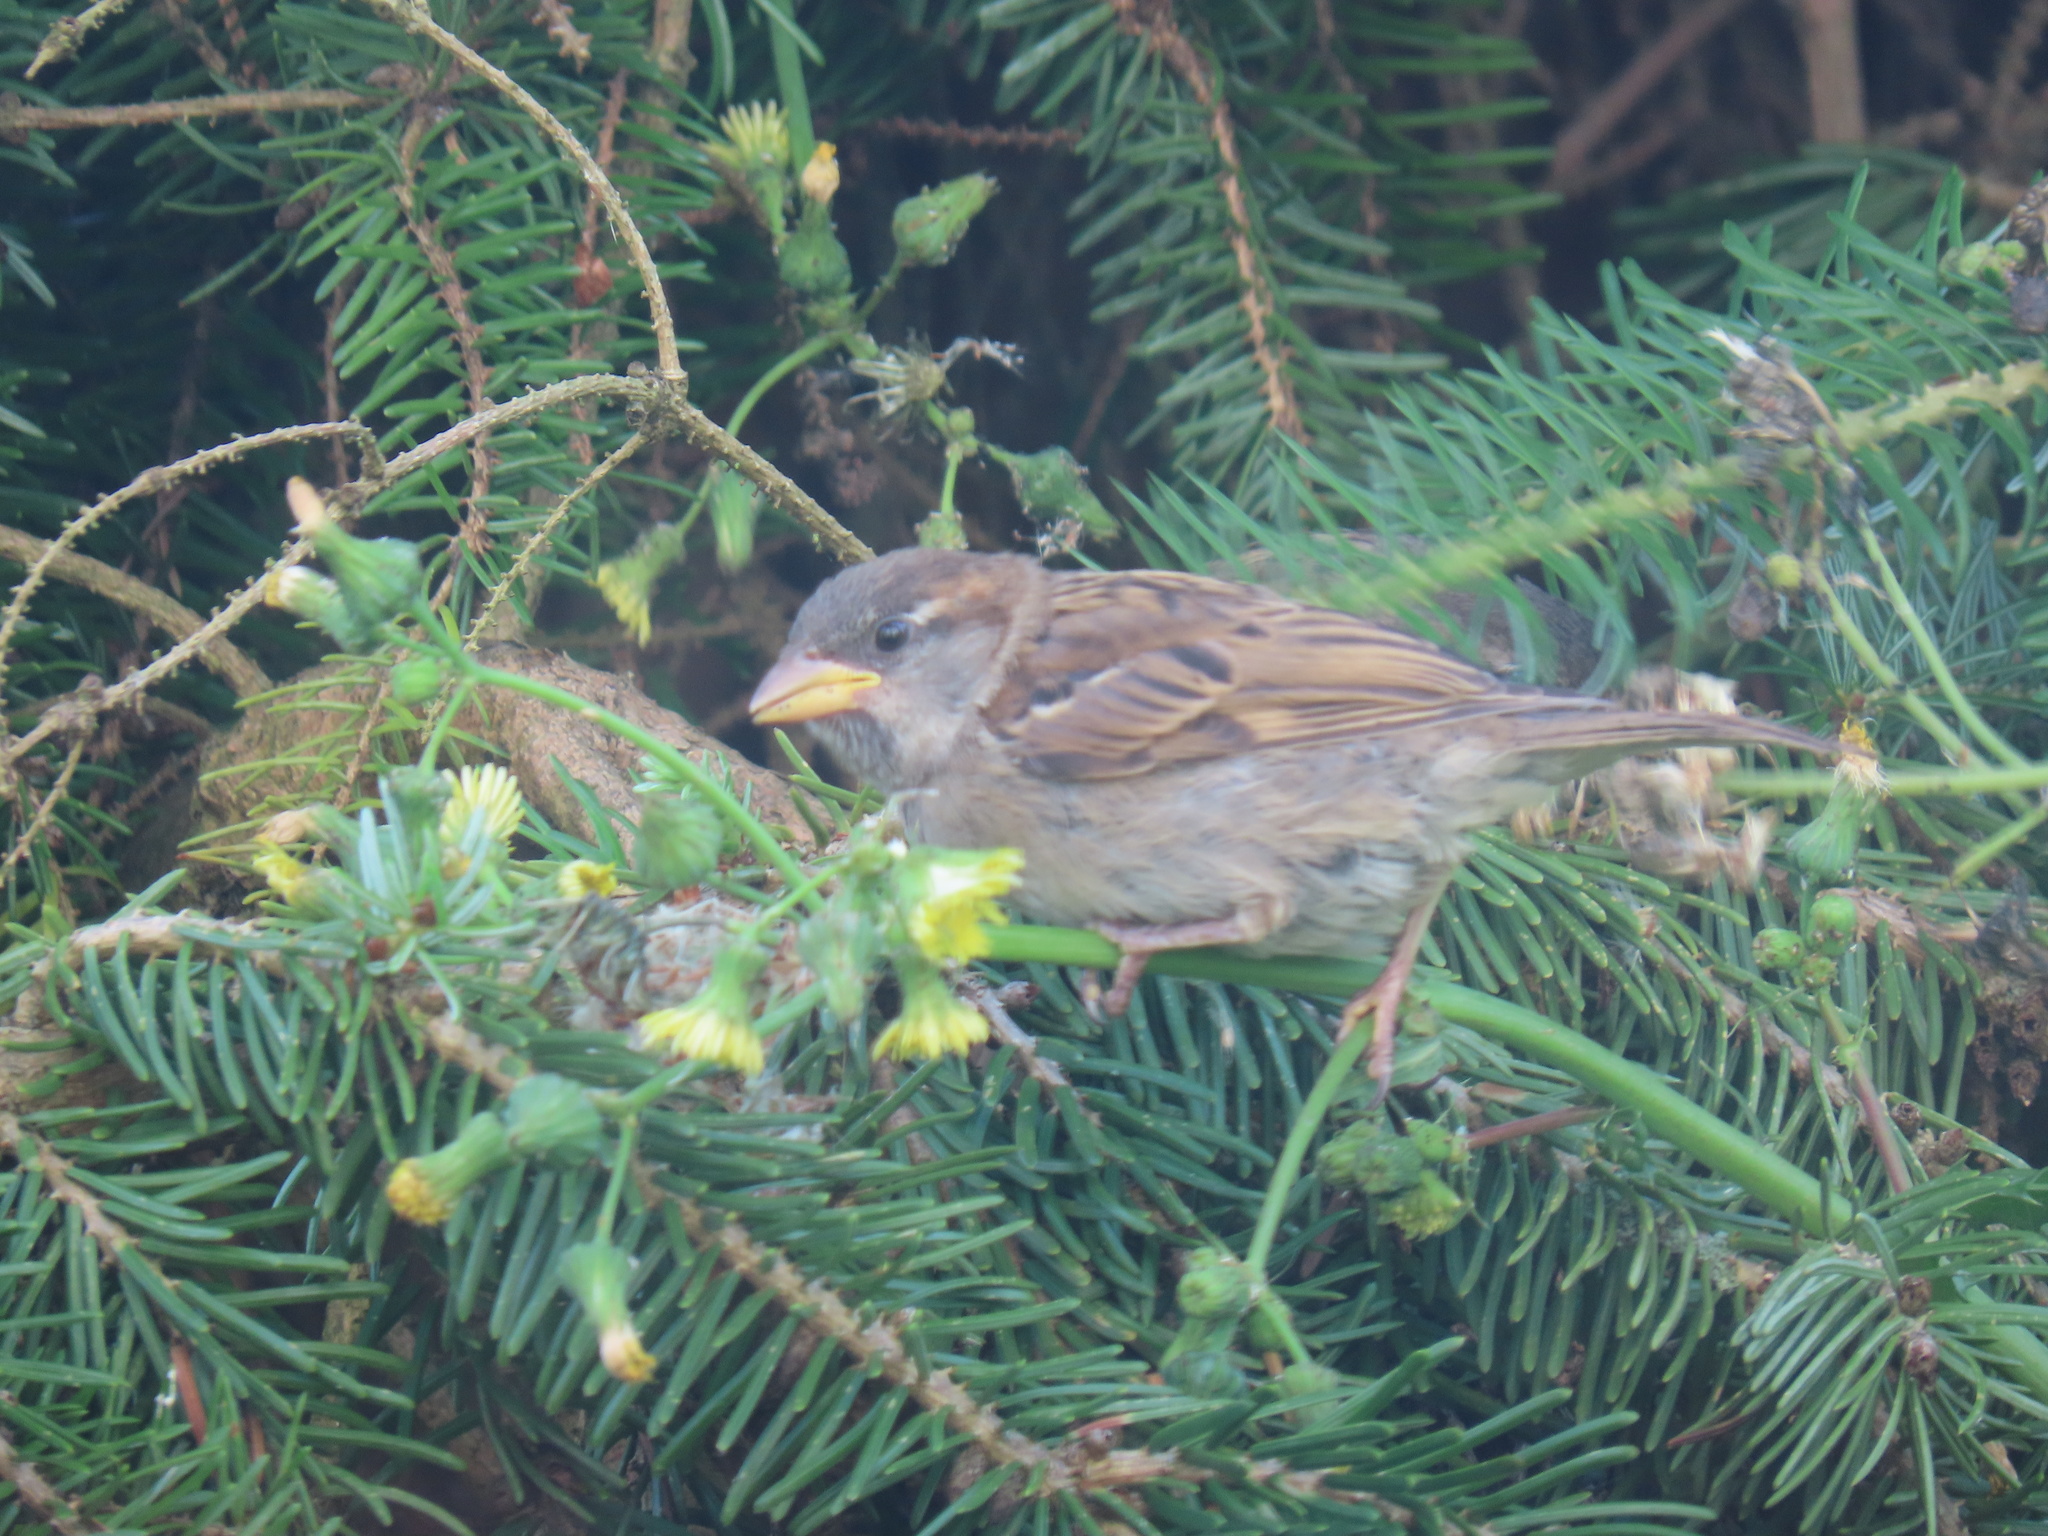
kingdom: Animalia
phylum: Chordata
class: Aves
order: Passeriformes
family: Passeridae
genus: Passer
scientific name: Passer domesticus
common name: House sparrow
